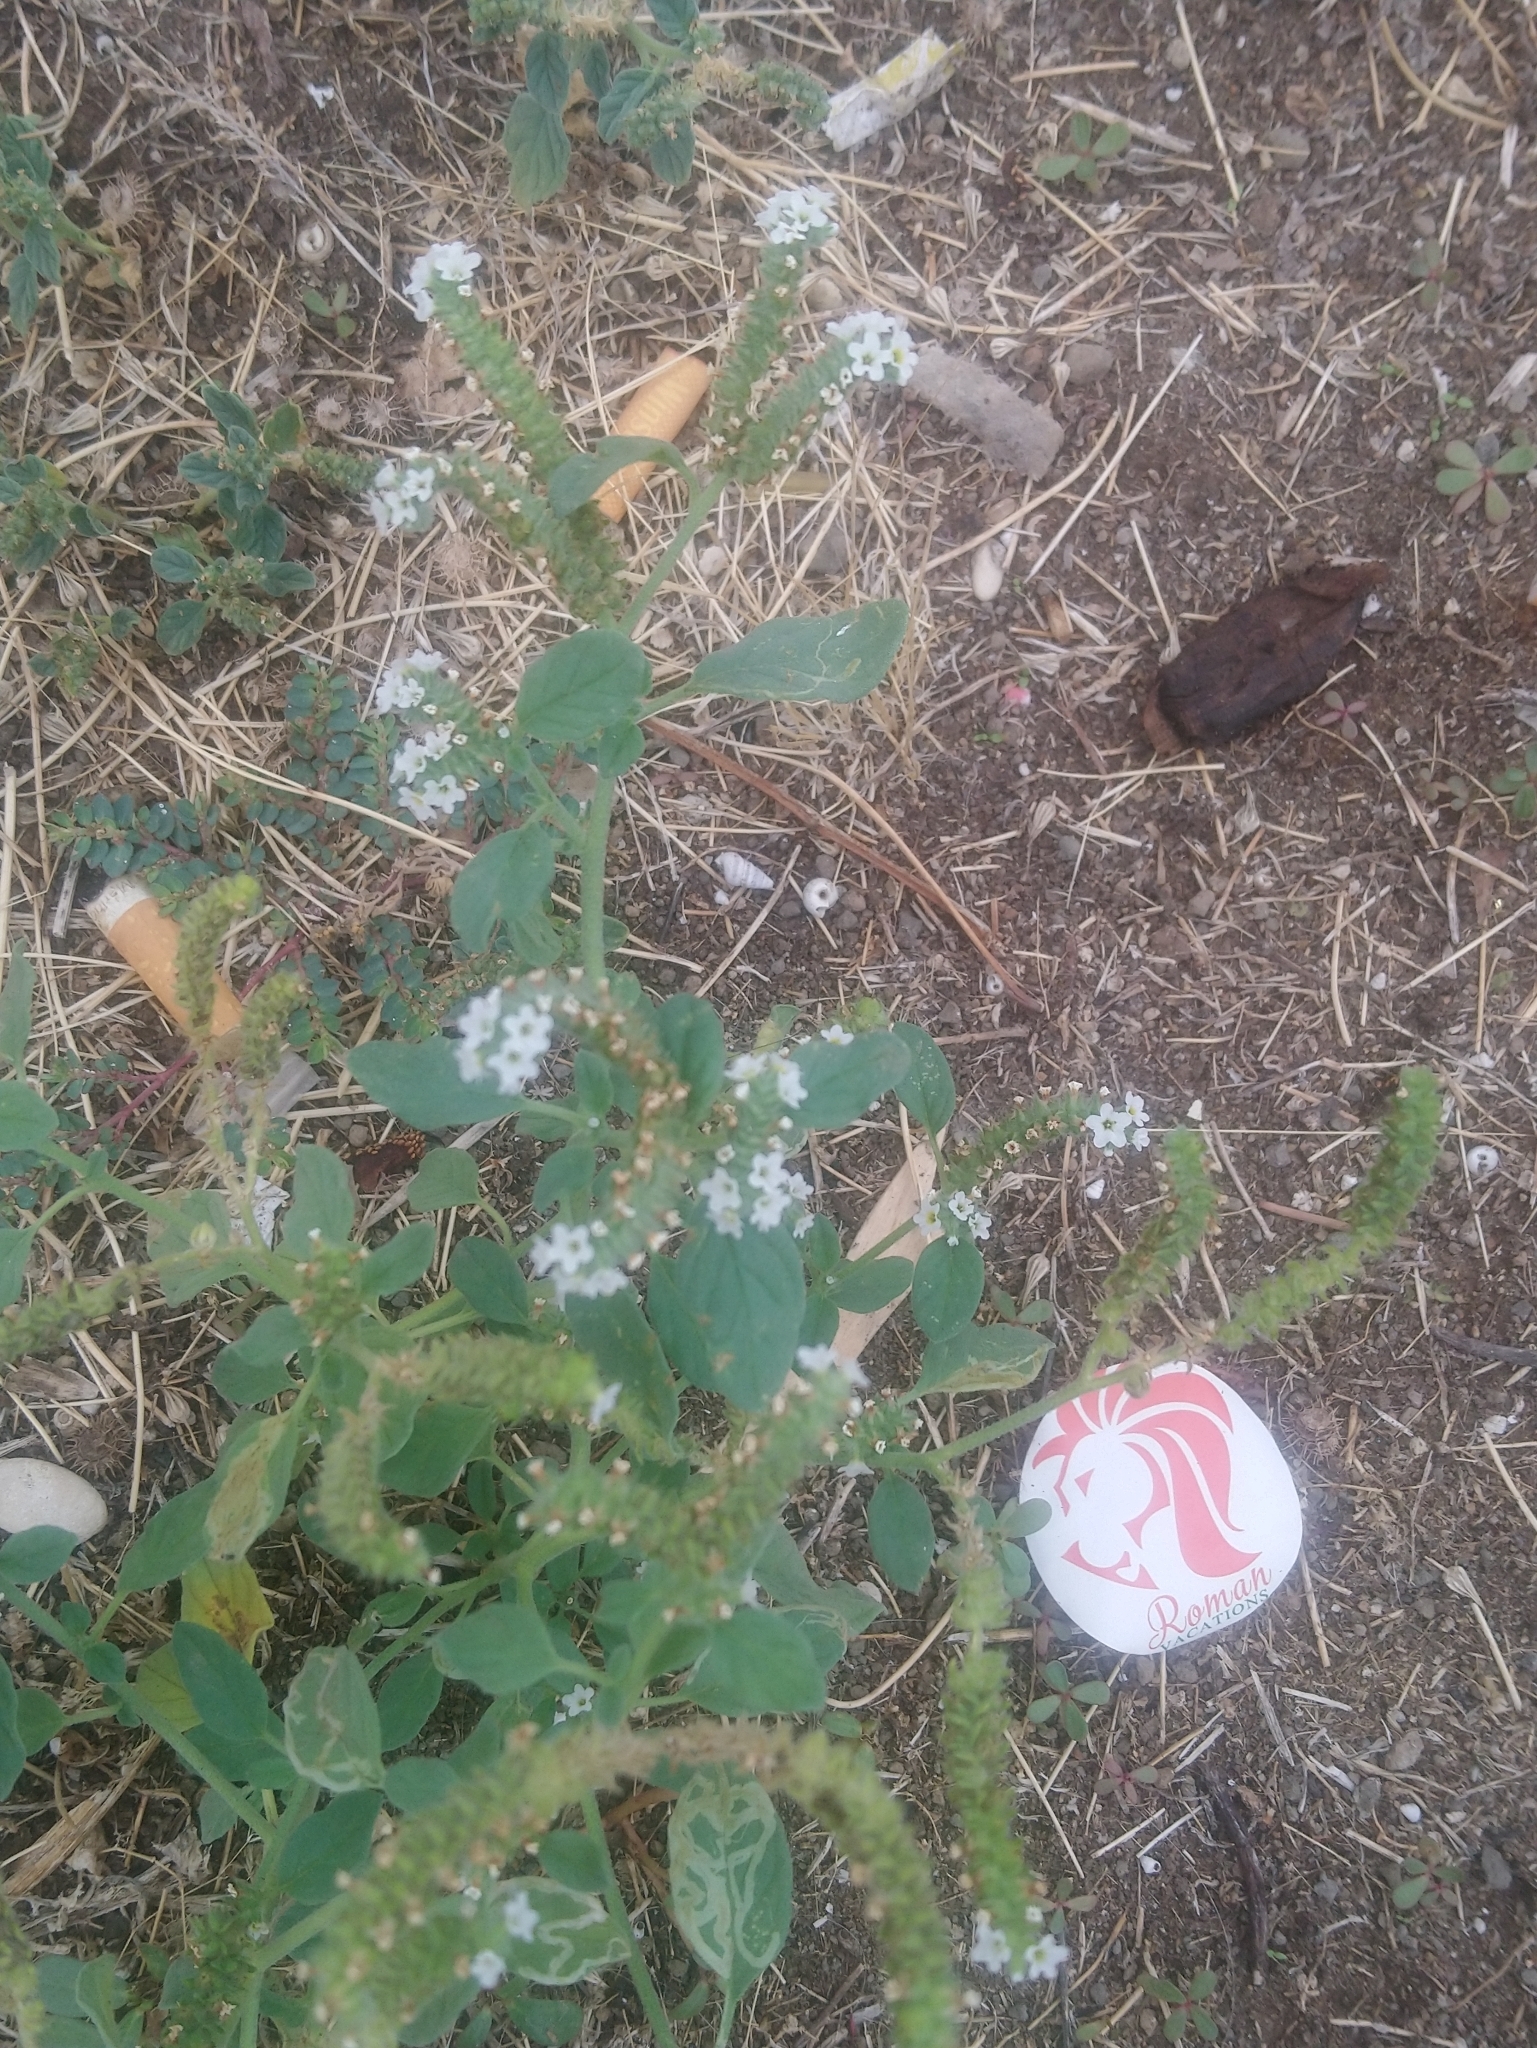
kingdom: Plantae
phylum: Tracheophyta
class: Magnoliopsida
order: Boraginales
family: Heliotropiaceae
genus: Heliotropium
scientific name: Heliotropium europaeum
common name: European heliotrope
